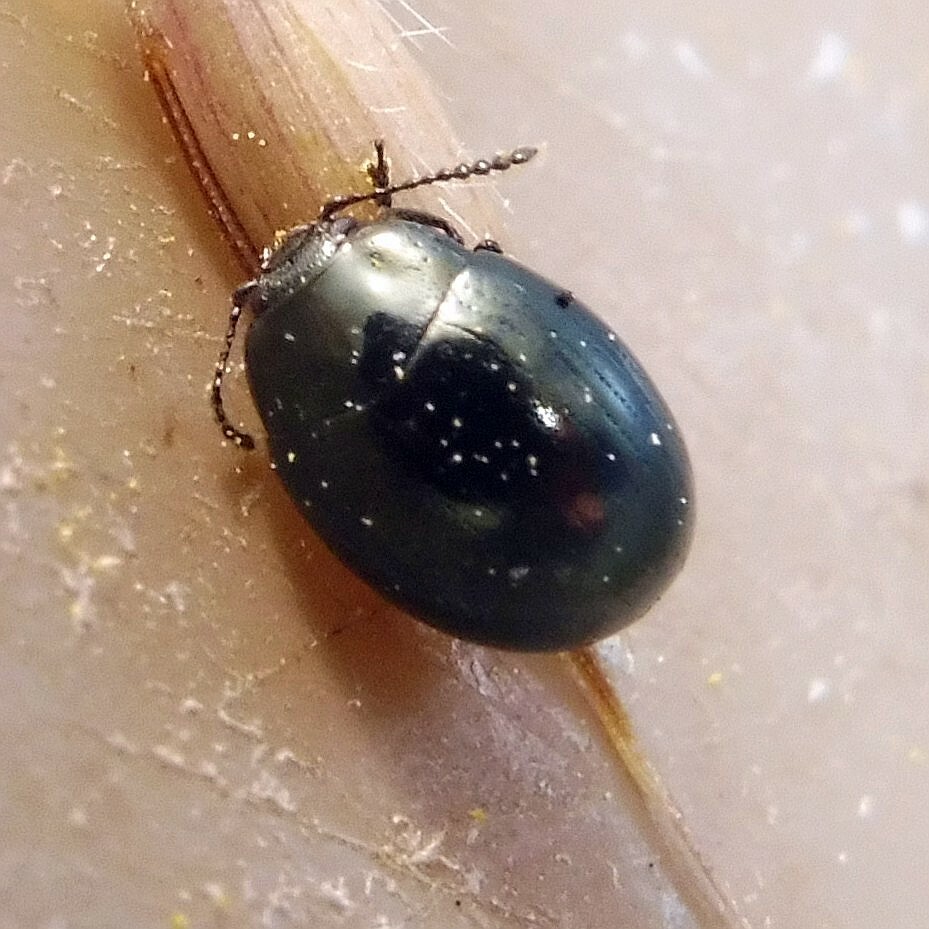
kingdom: Animalia
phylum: Arthropoda
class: Insecta
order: Coleoptera
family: Chrysomelidae
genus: Phaedon
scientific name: Phaedon tumidulus
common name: Celery leaf beetle
